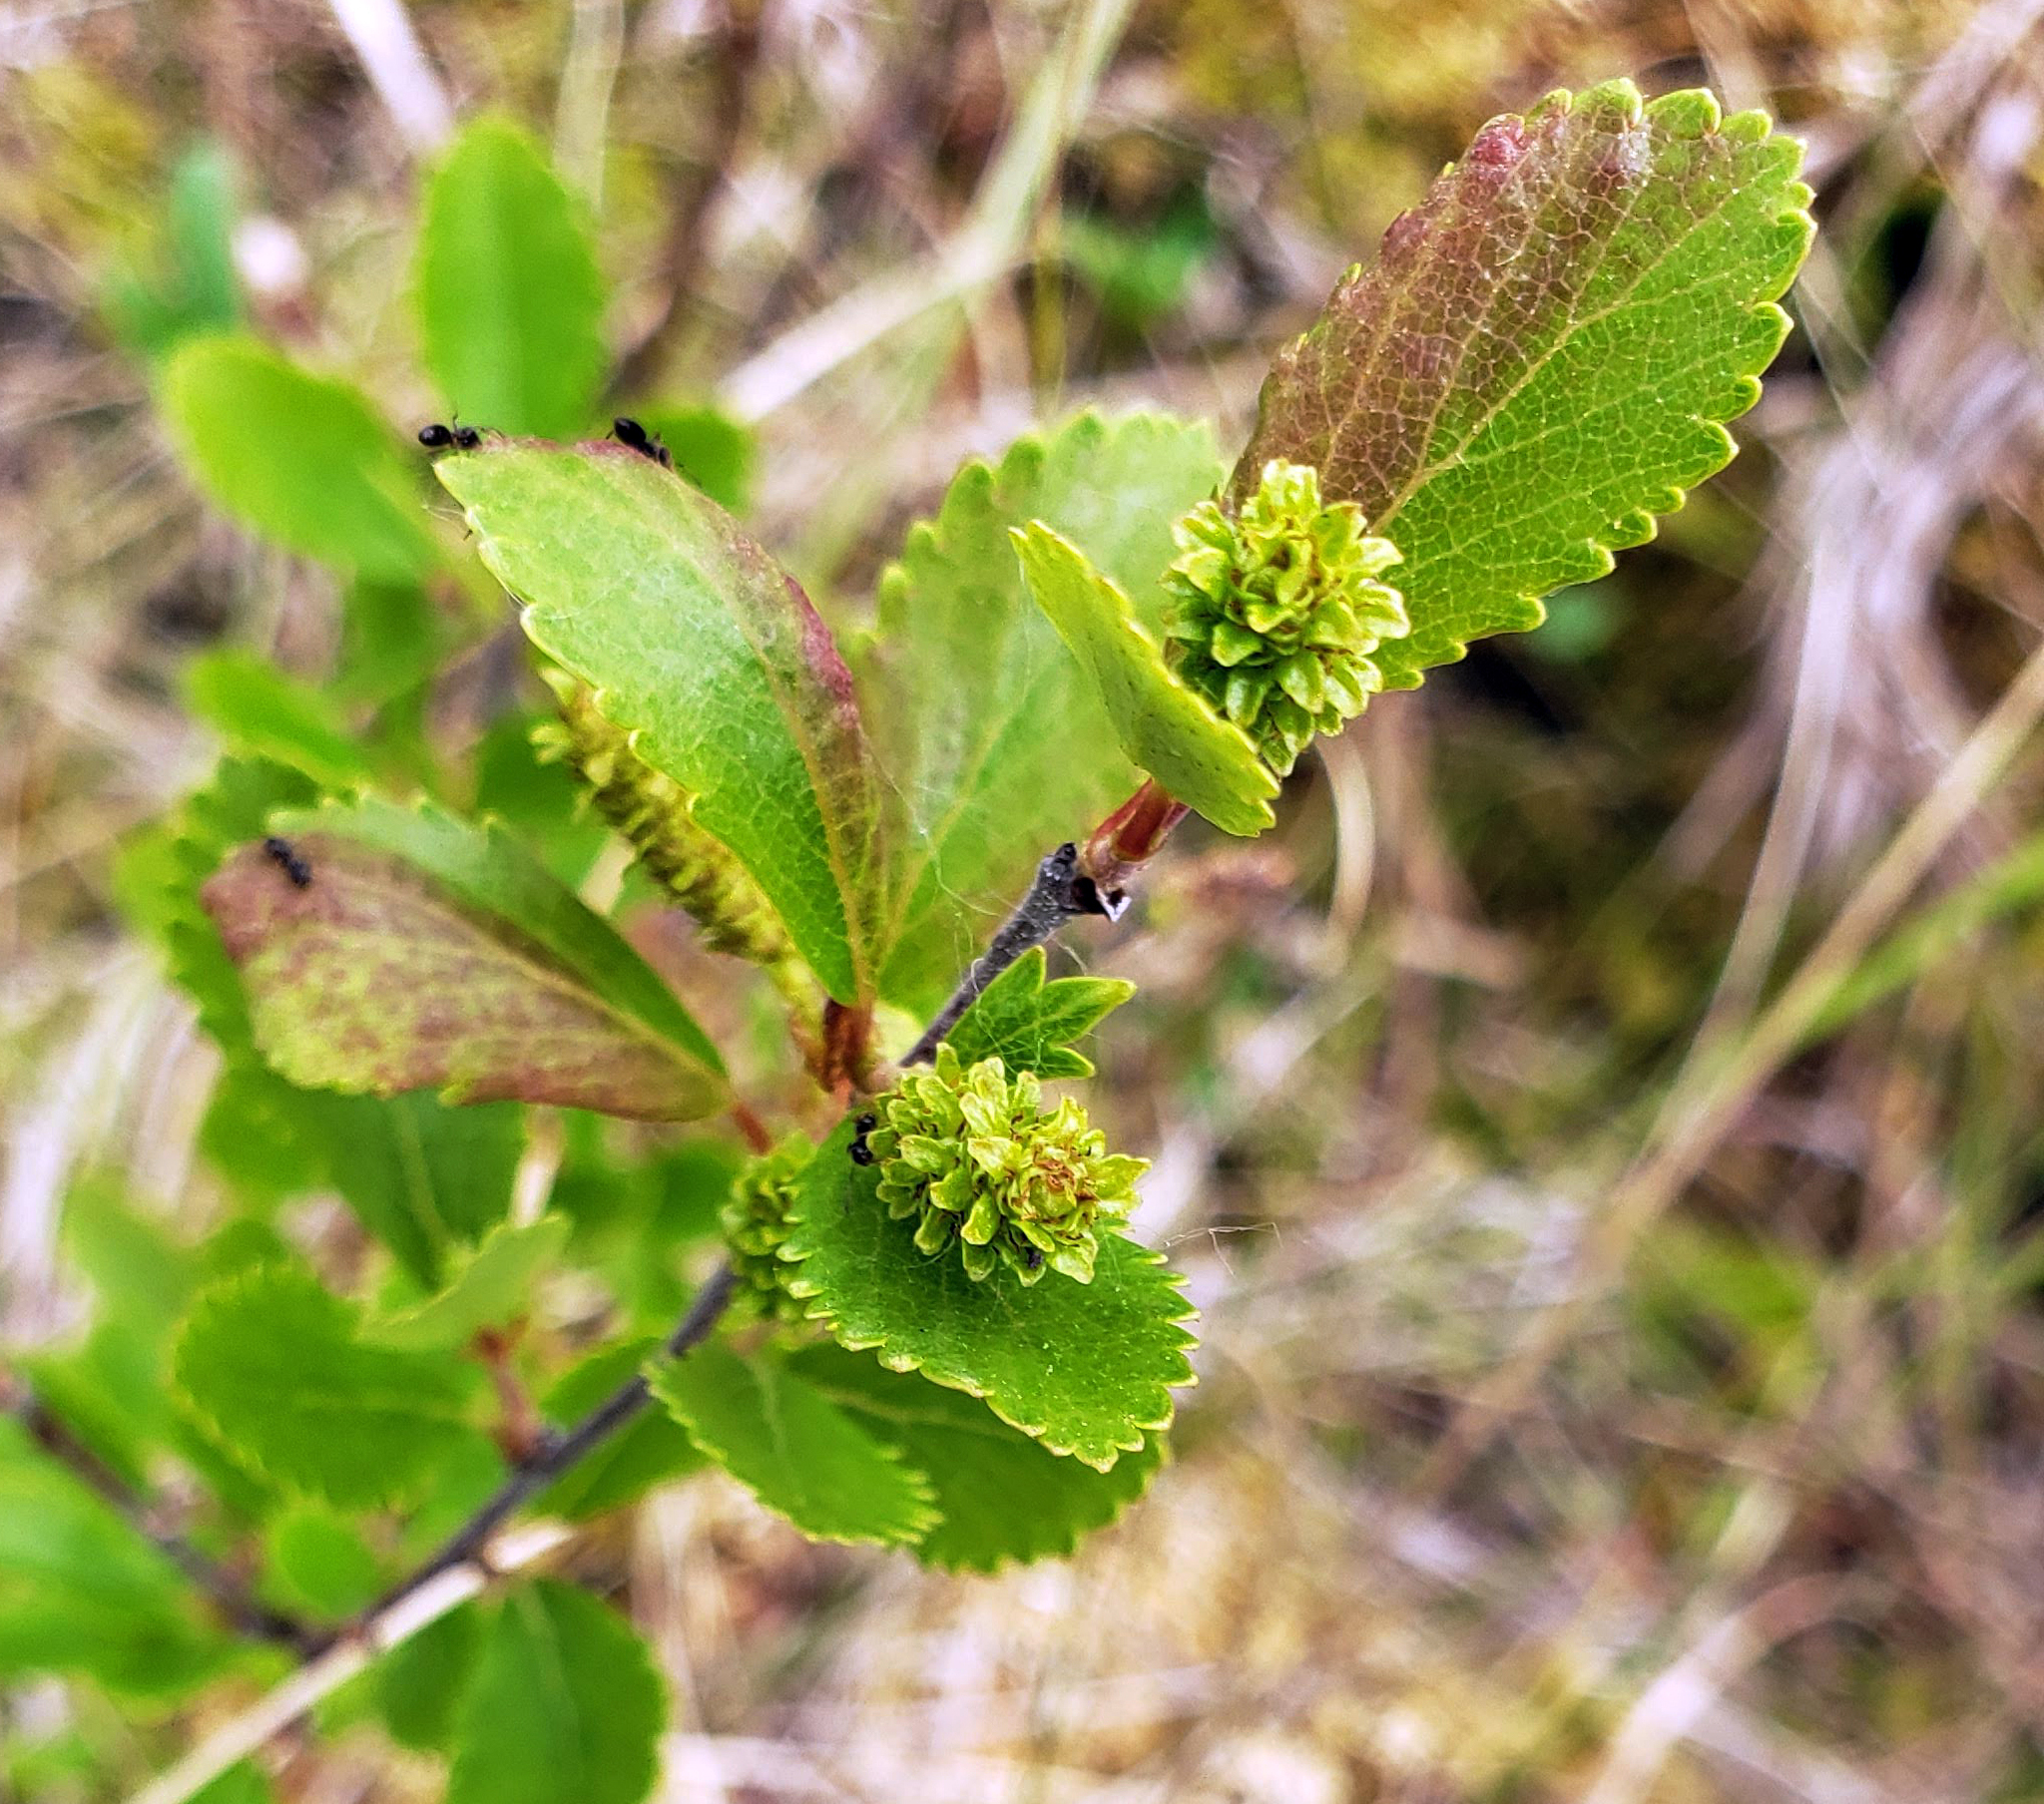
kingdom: Plantae
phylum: Tracheophyta
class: Magnoliopsida
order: Fagales
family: Betulaceae
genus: Betula
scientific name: Betula pumila
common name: Bog birch
